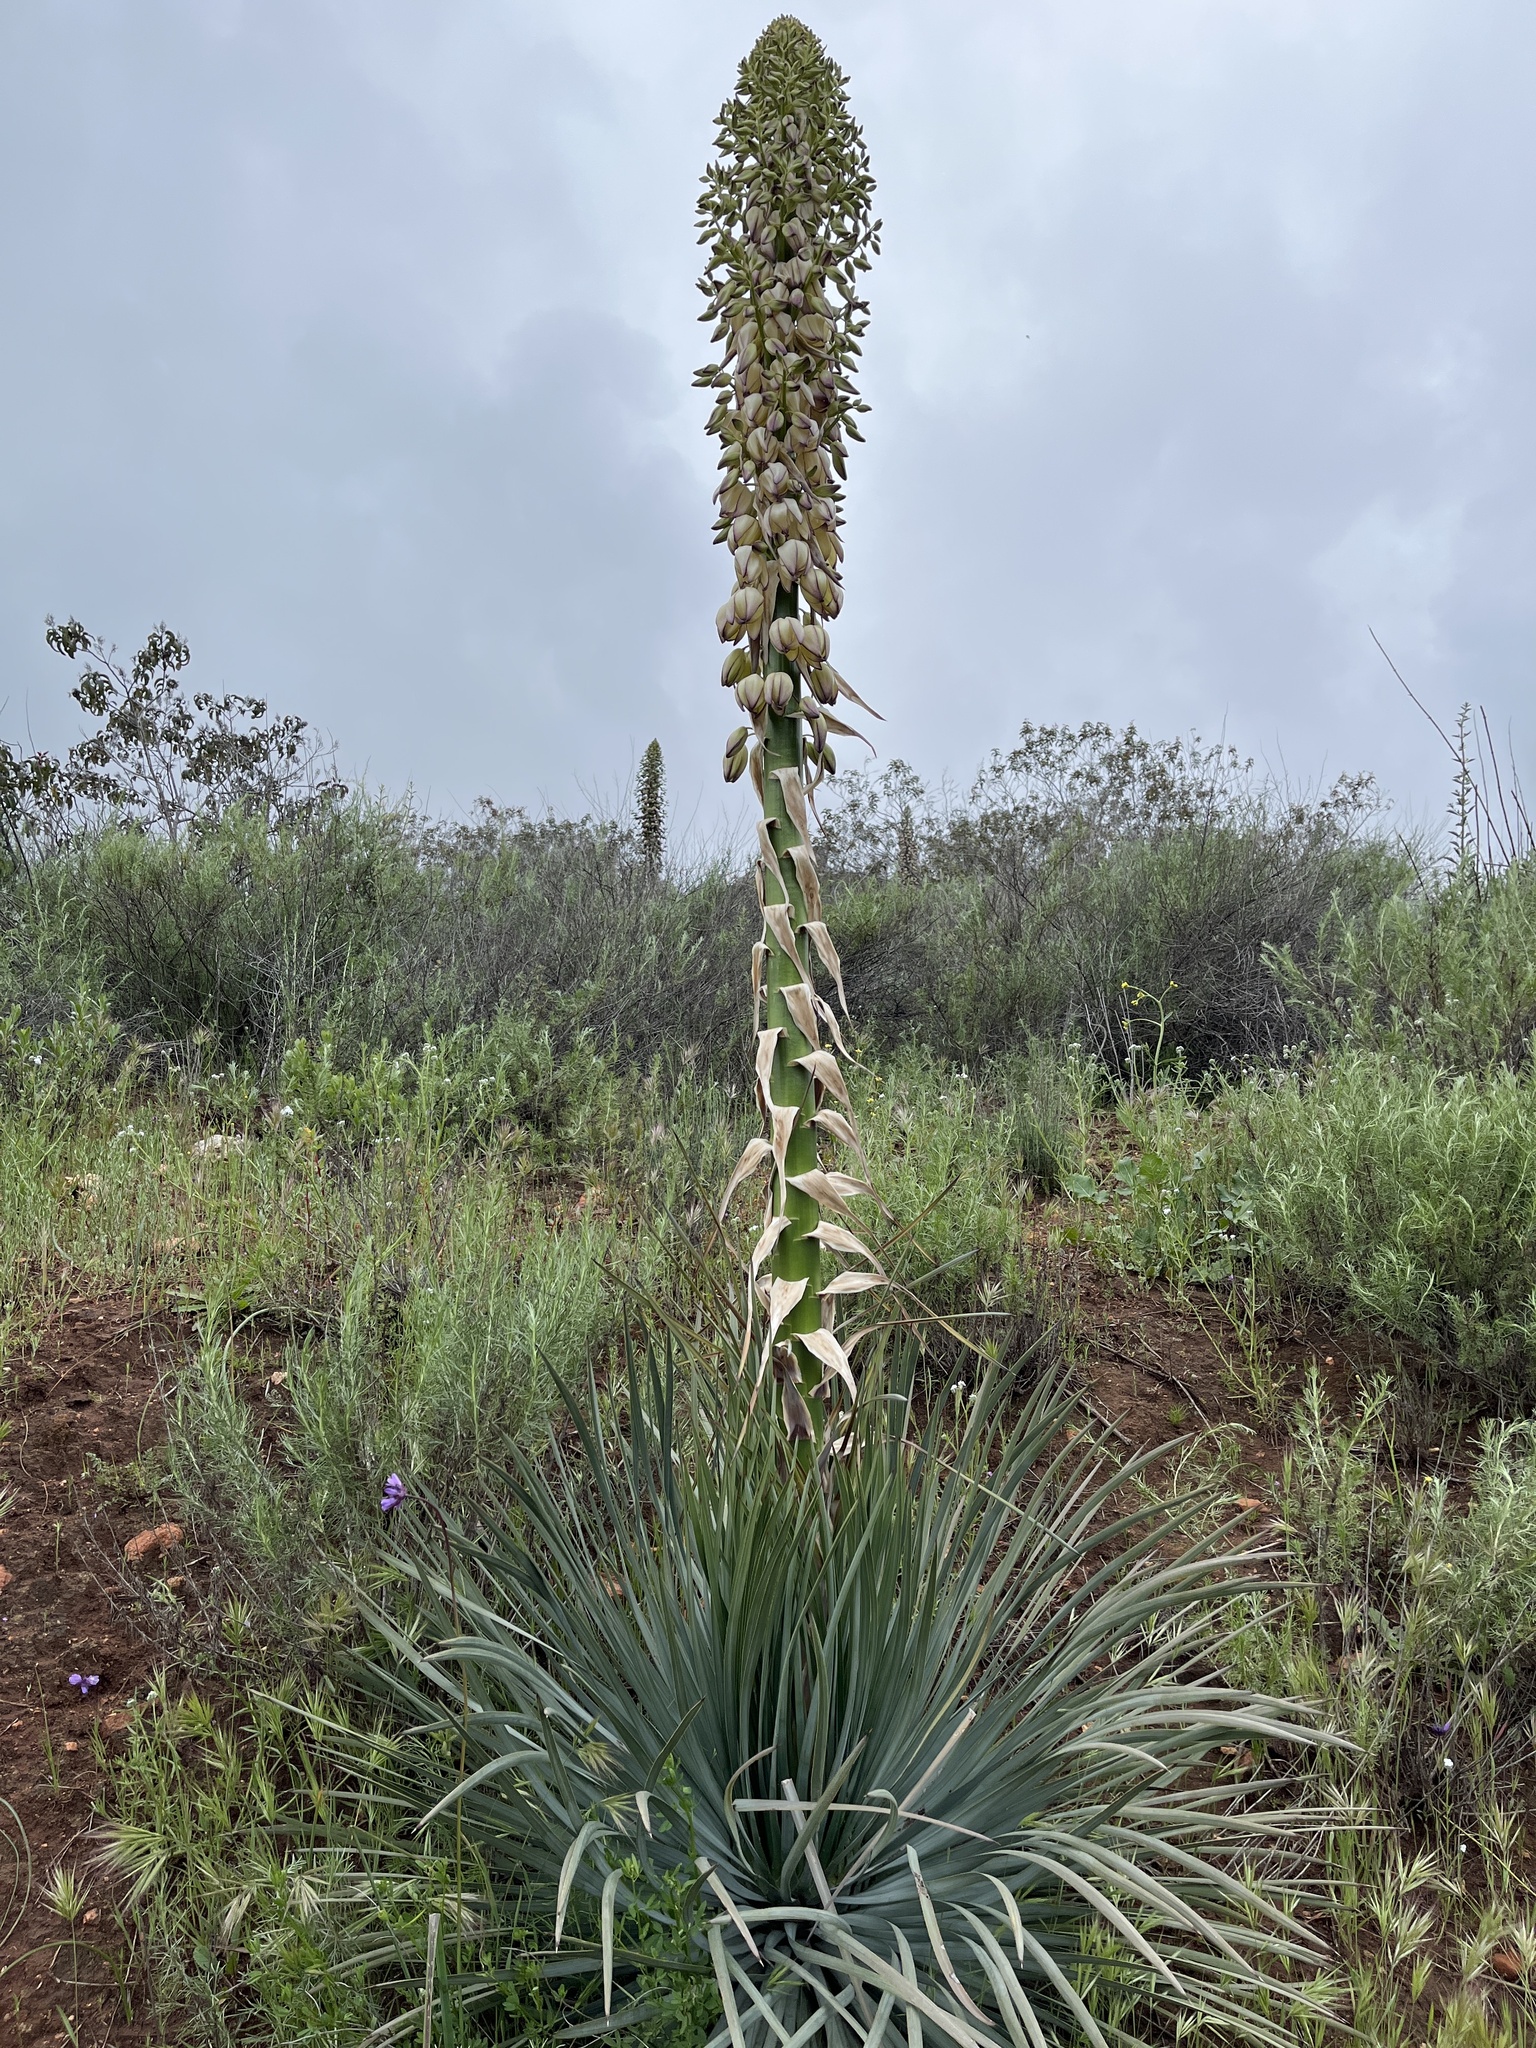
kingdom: Plantae
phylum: Tracheophyta
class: Liliopsida
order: Asparagales
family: Asparagaceae
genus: Hesperoyucca
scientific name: Hesperoyucca whipplei
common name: Our lord's-candle
